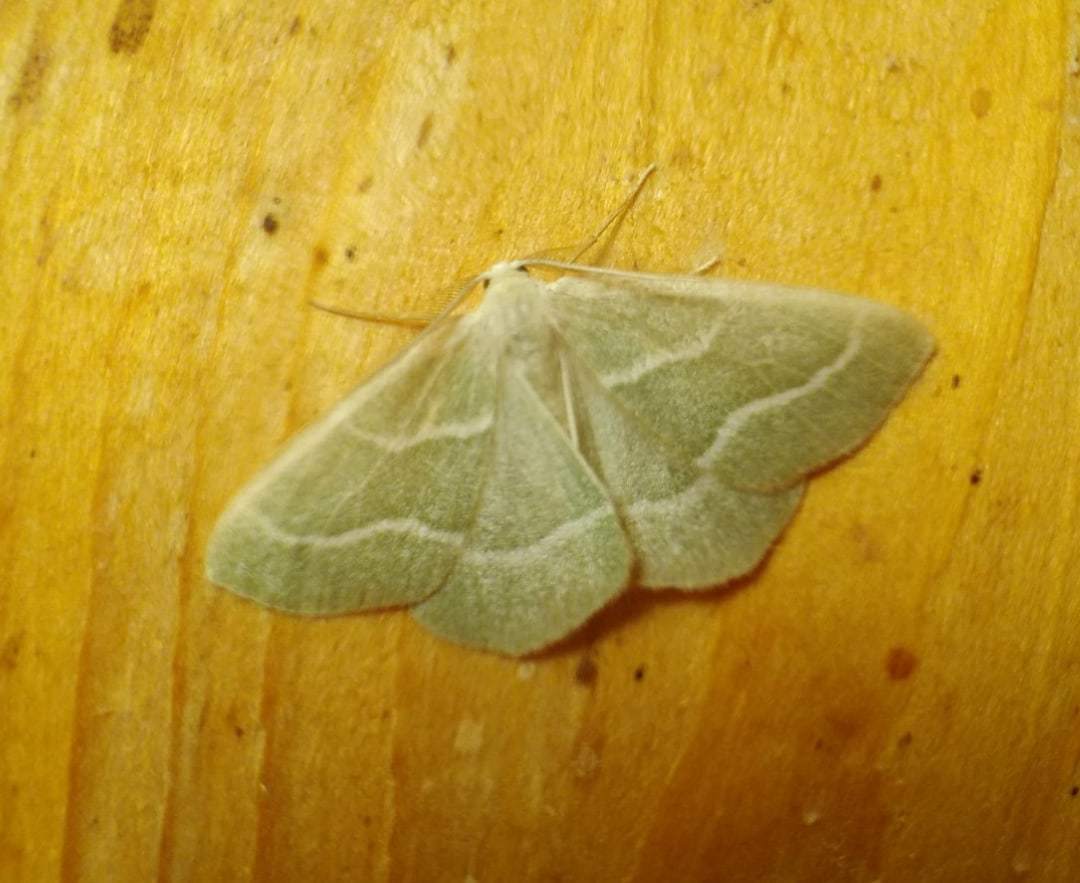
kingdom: Animalia
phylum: Arthropoda
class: Insecta
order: Lepidoptera
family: Geometridae
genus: Hylaea
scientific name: Hylaea fasciaria
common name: Barred red
